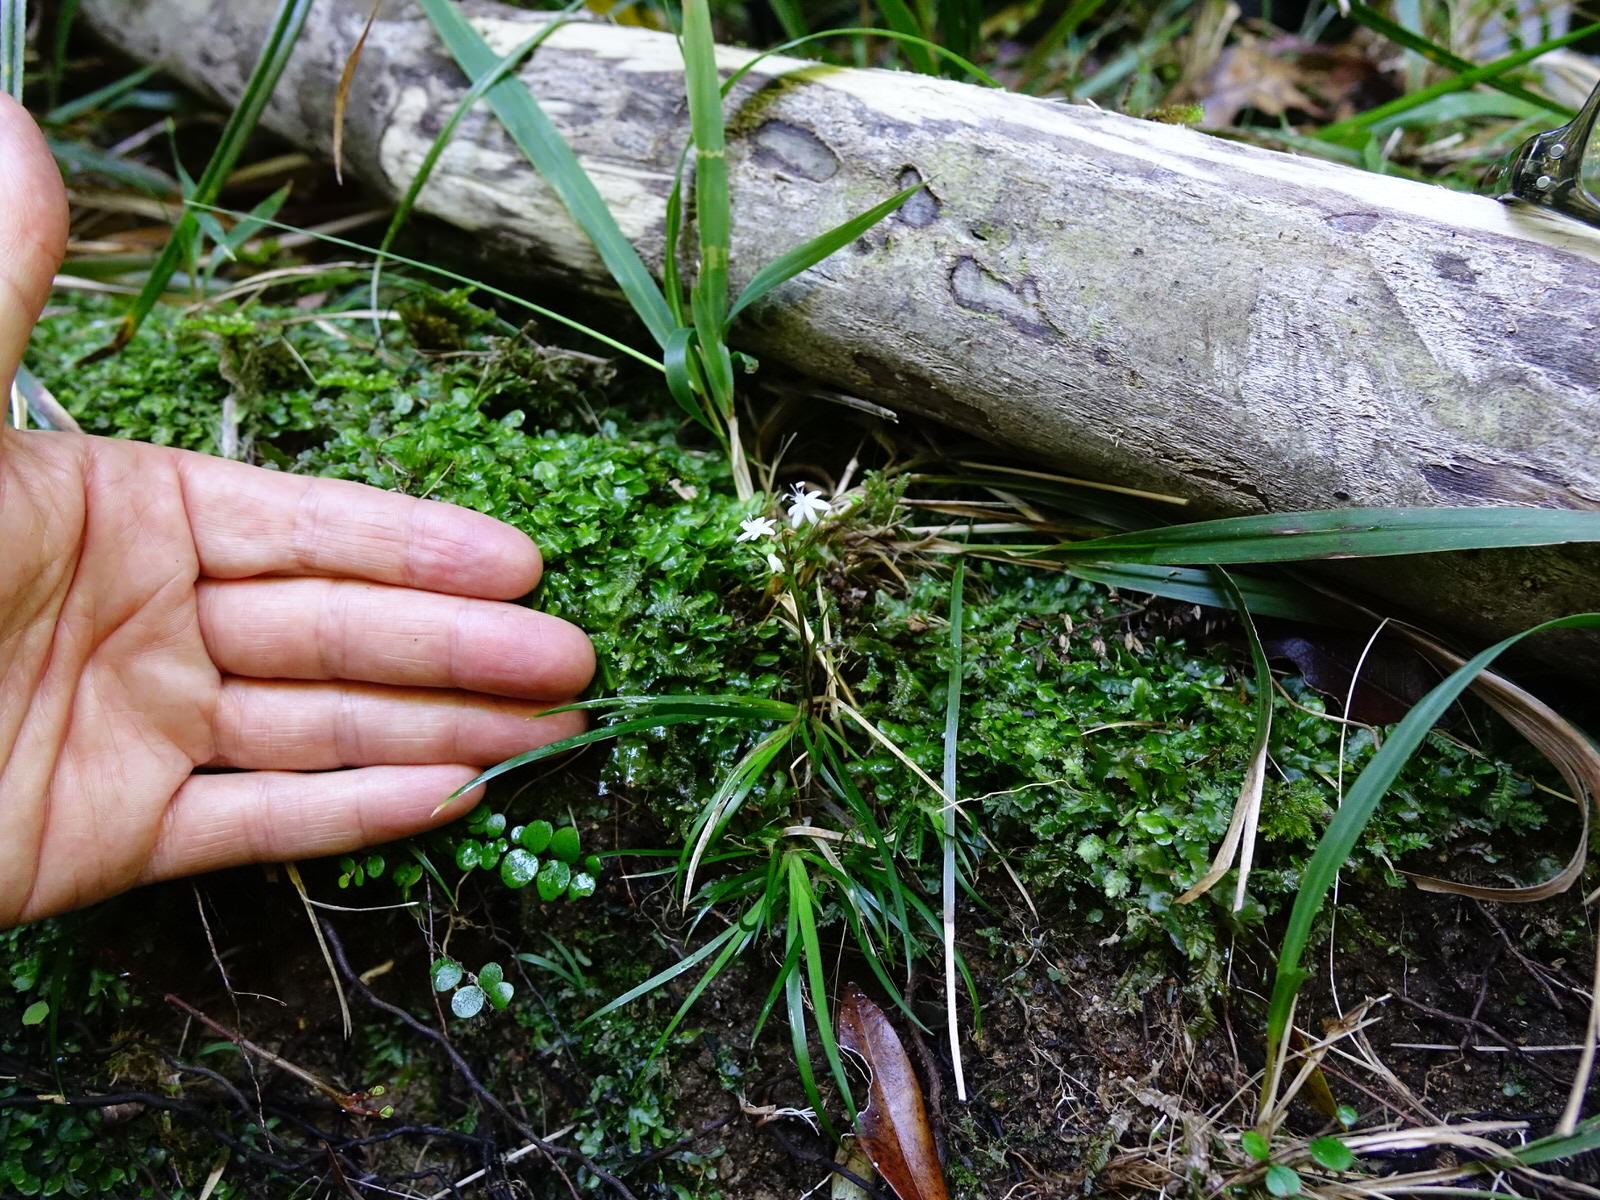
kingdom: Plantae
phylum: Tracheophyta
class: Liliopsida
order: Asparagales
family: Iridaceae
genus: Libertia
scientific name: Libertia micrantha
